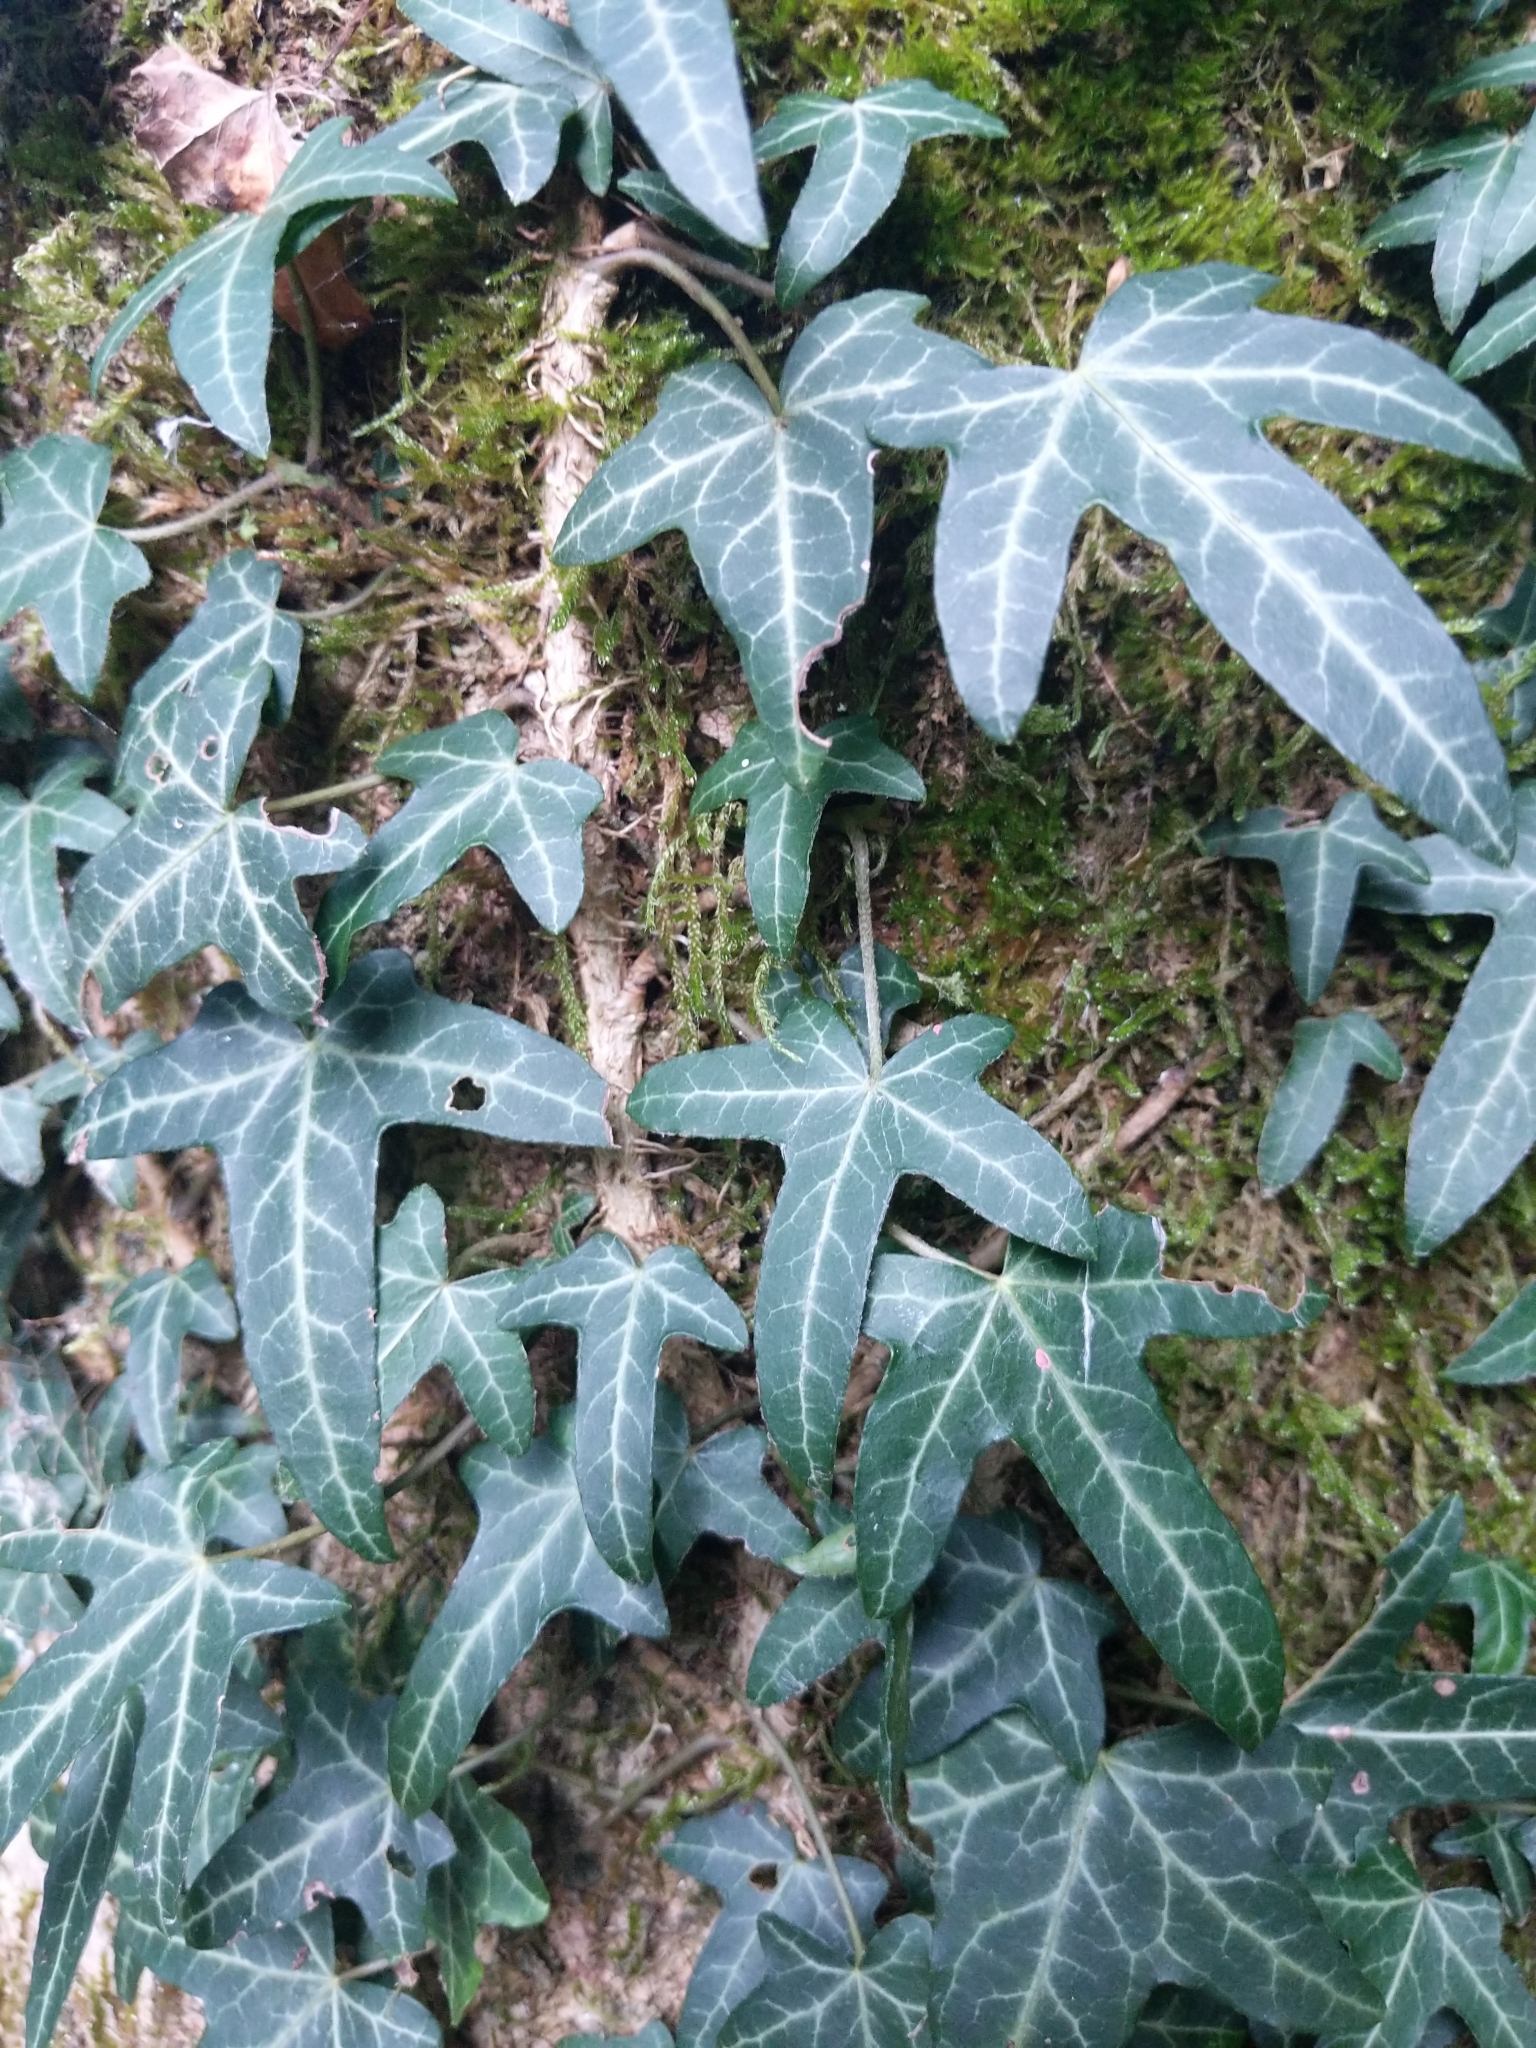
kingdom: Plantae
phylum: Tracheophyta
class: Magnoliopsida
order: Apiales
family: Araliaceae
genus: Hedera
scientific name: Hedera helix
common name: Ivy
